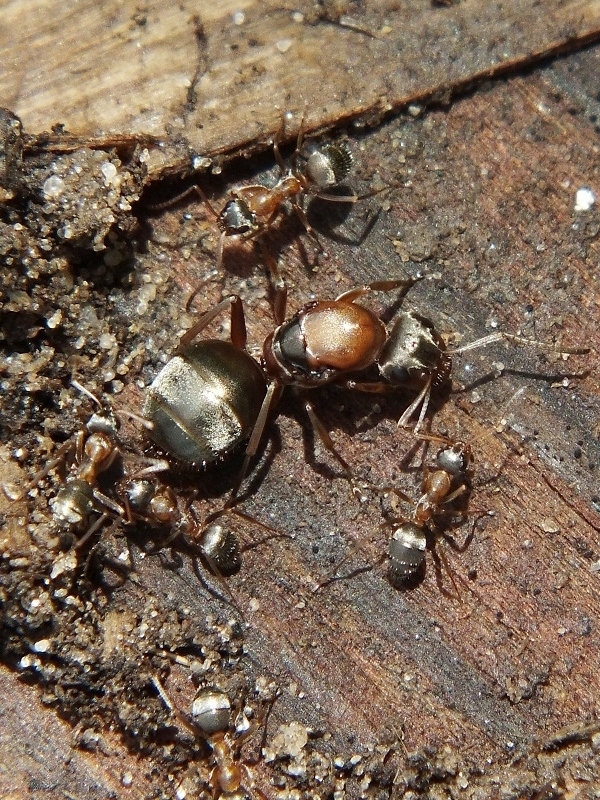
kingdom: Animalia
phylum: Arthropoda
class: Insecta
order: Hymenoptera
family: Formicidae
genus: Formica
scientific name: Formica cinerea
